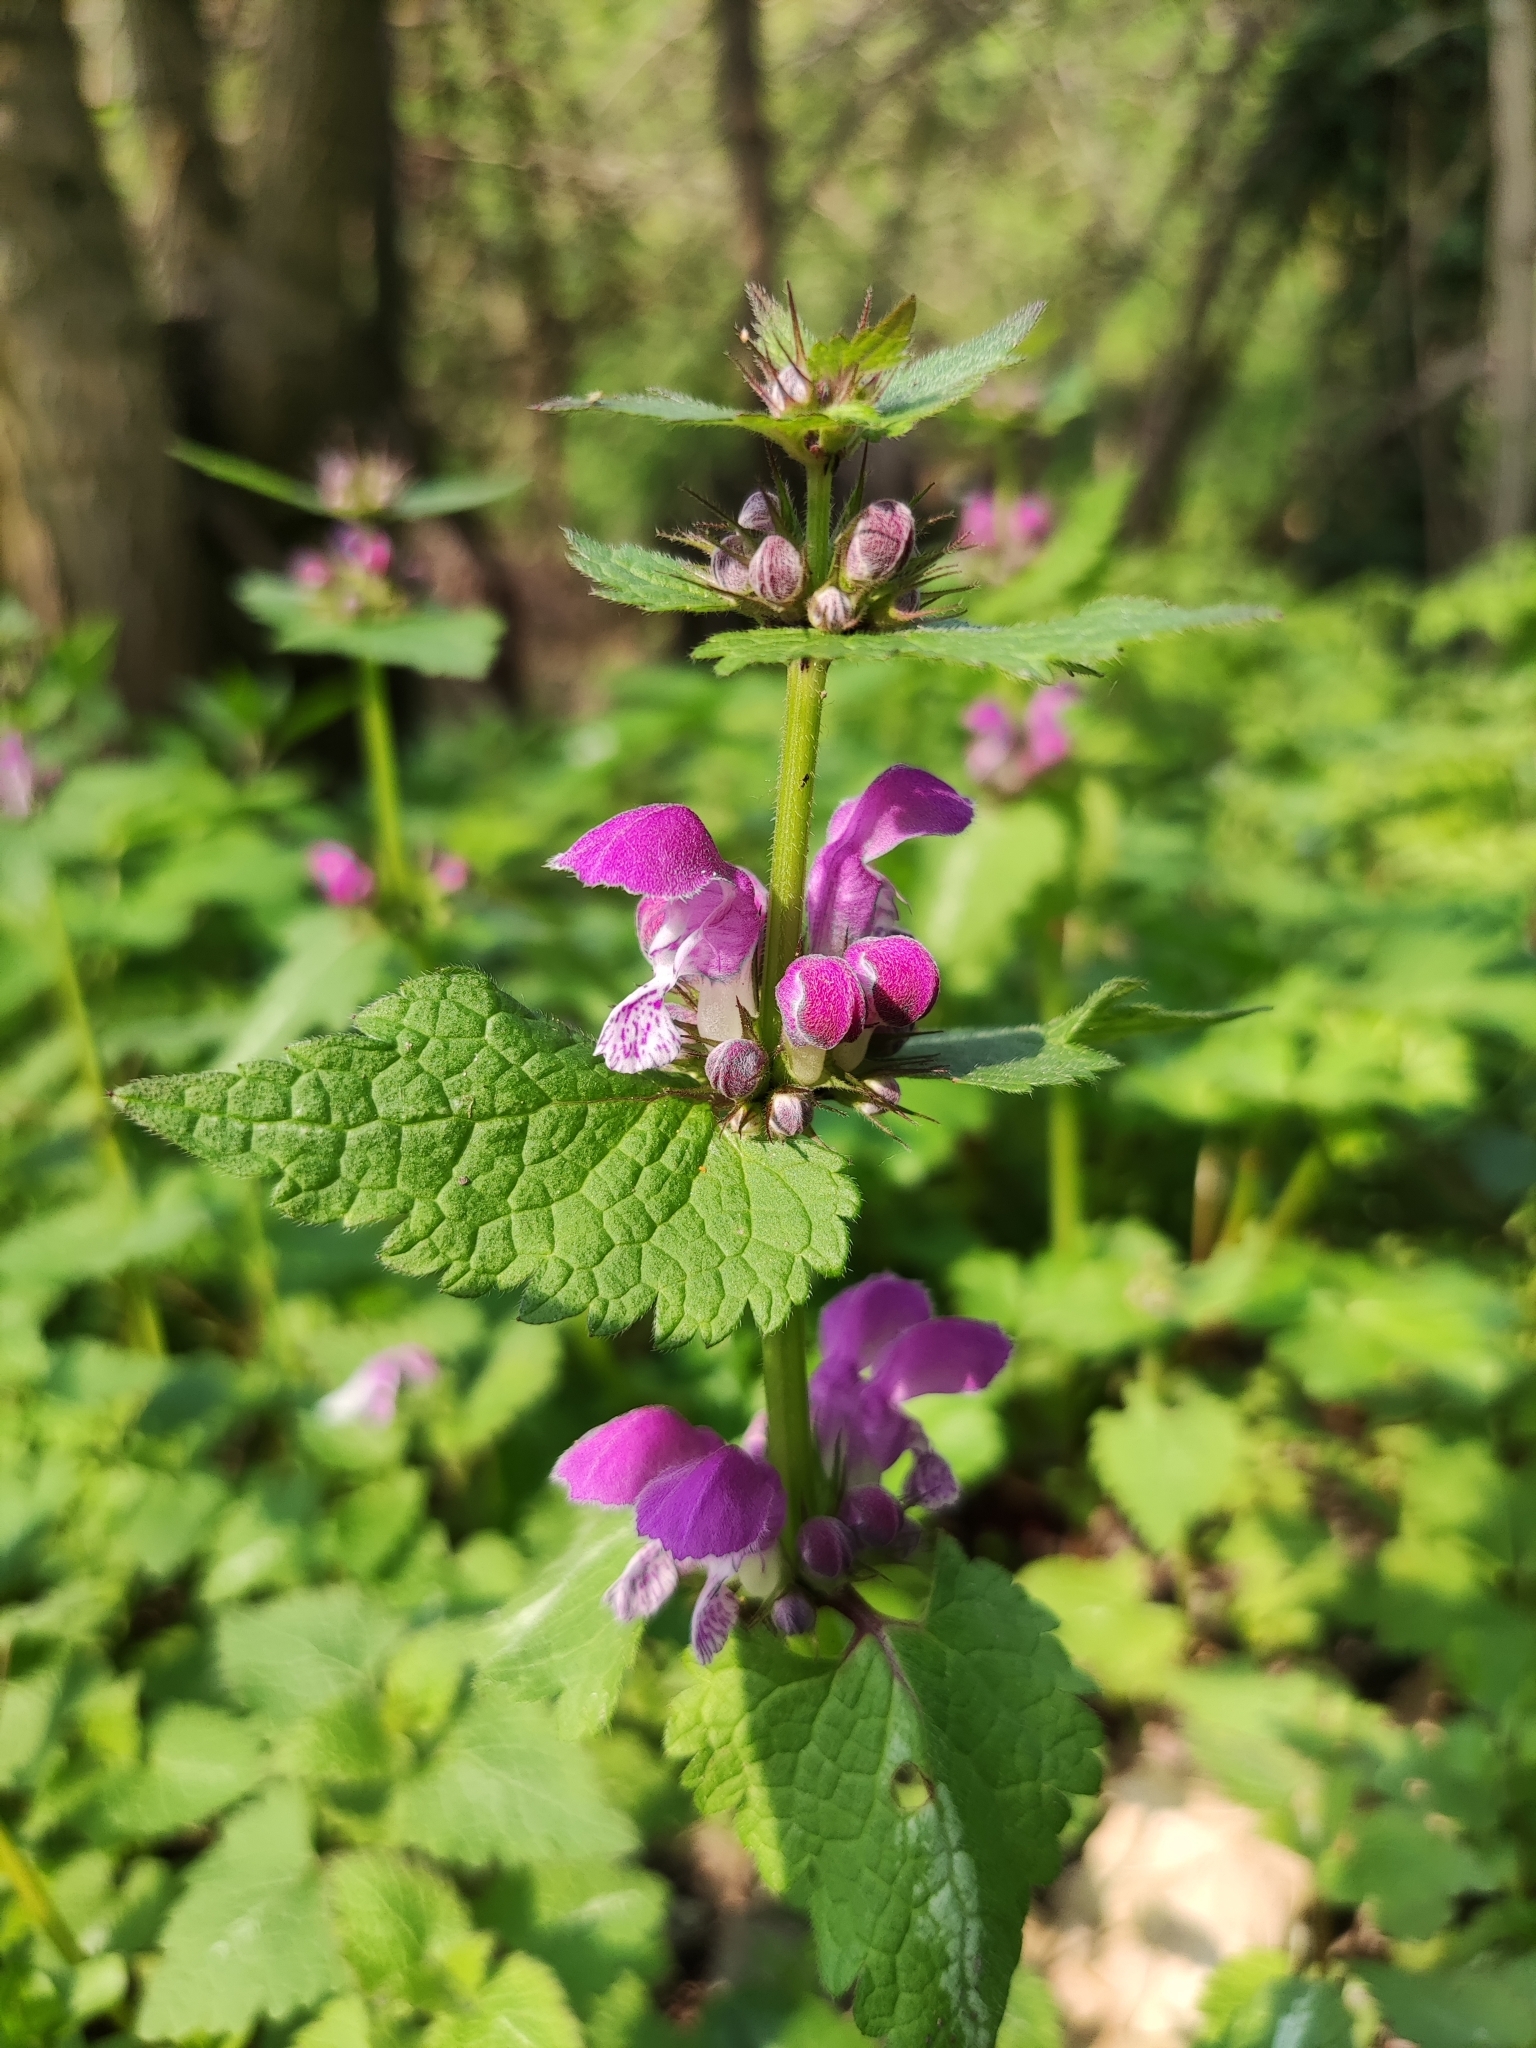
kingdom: Plantae
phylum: Tracheophyta
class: Magnoliopsida
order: Lamiales
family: Lamiaceae
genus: Lamium
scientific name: Lamium maculatum
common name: Spotted dead-nettle
